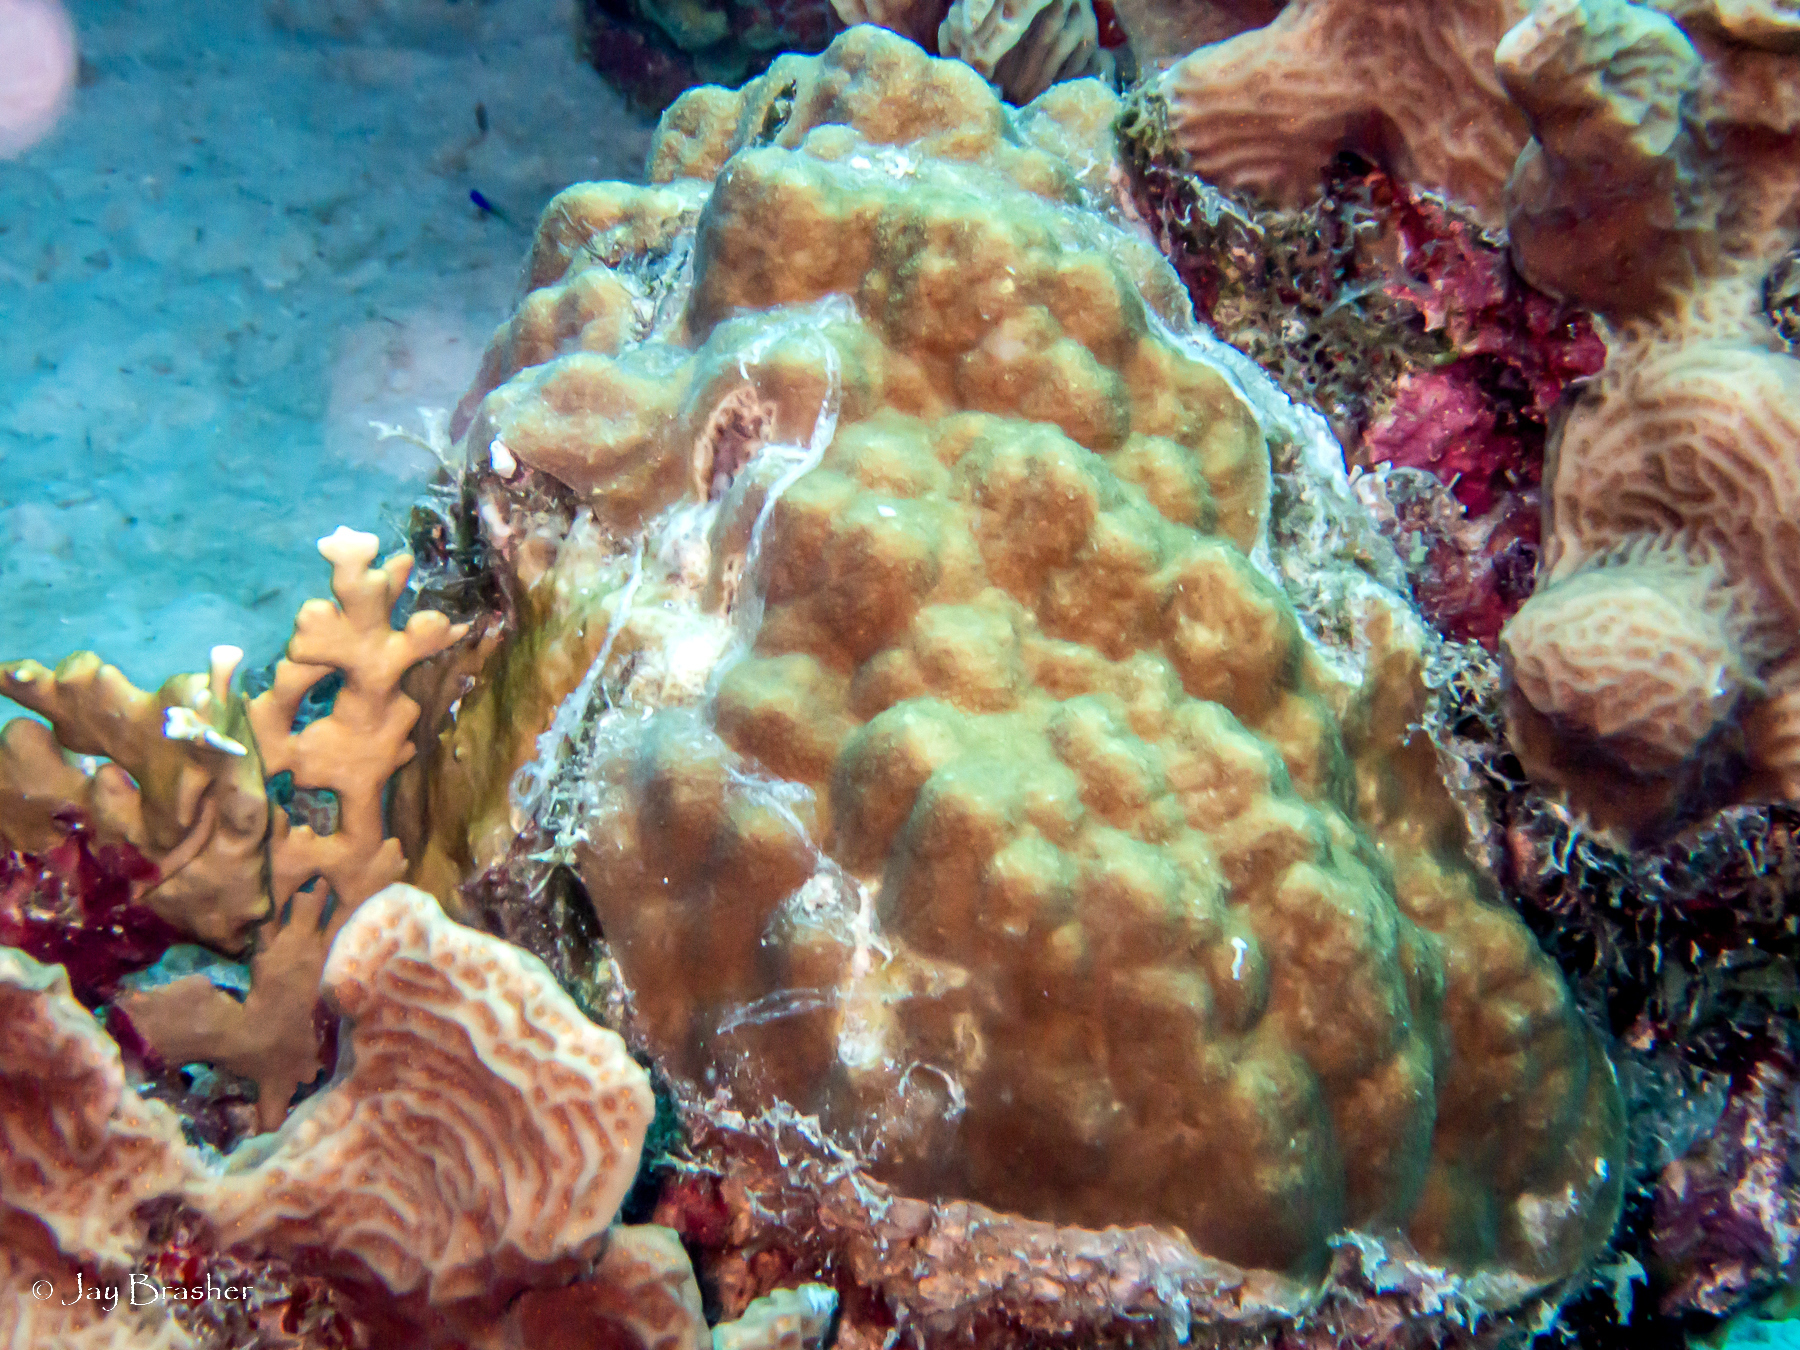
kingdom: Animalia
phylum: Cnidaria
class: Anthozoa
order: Scleractinia
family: Poritidae
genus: Porites
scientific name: Porites astreoides
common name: Mustard hill coral
